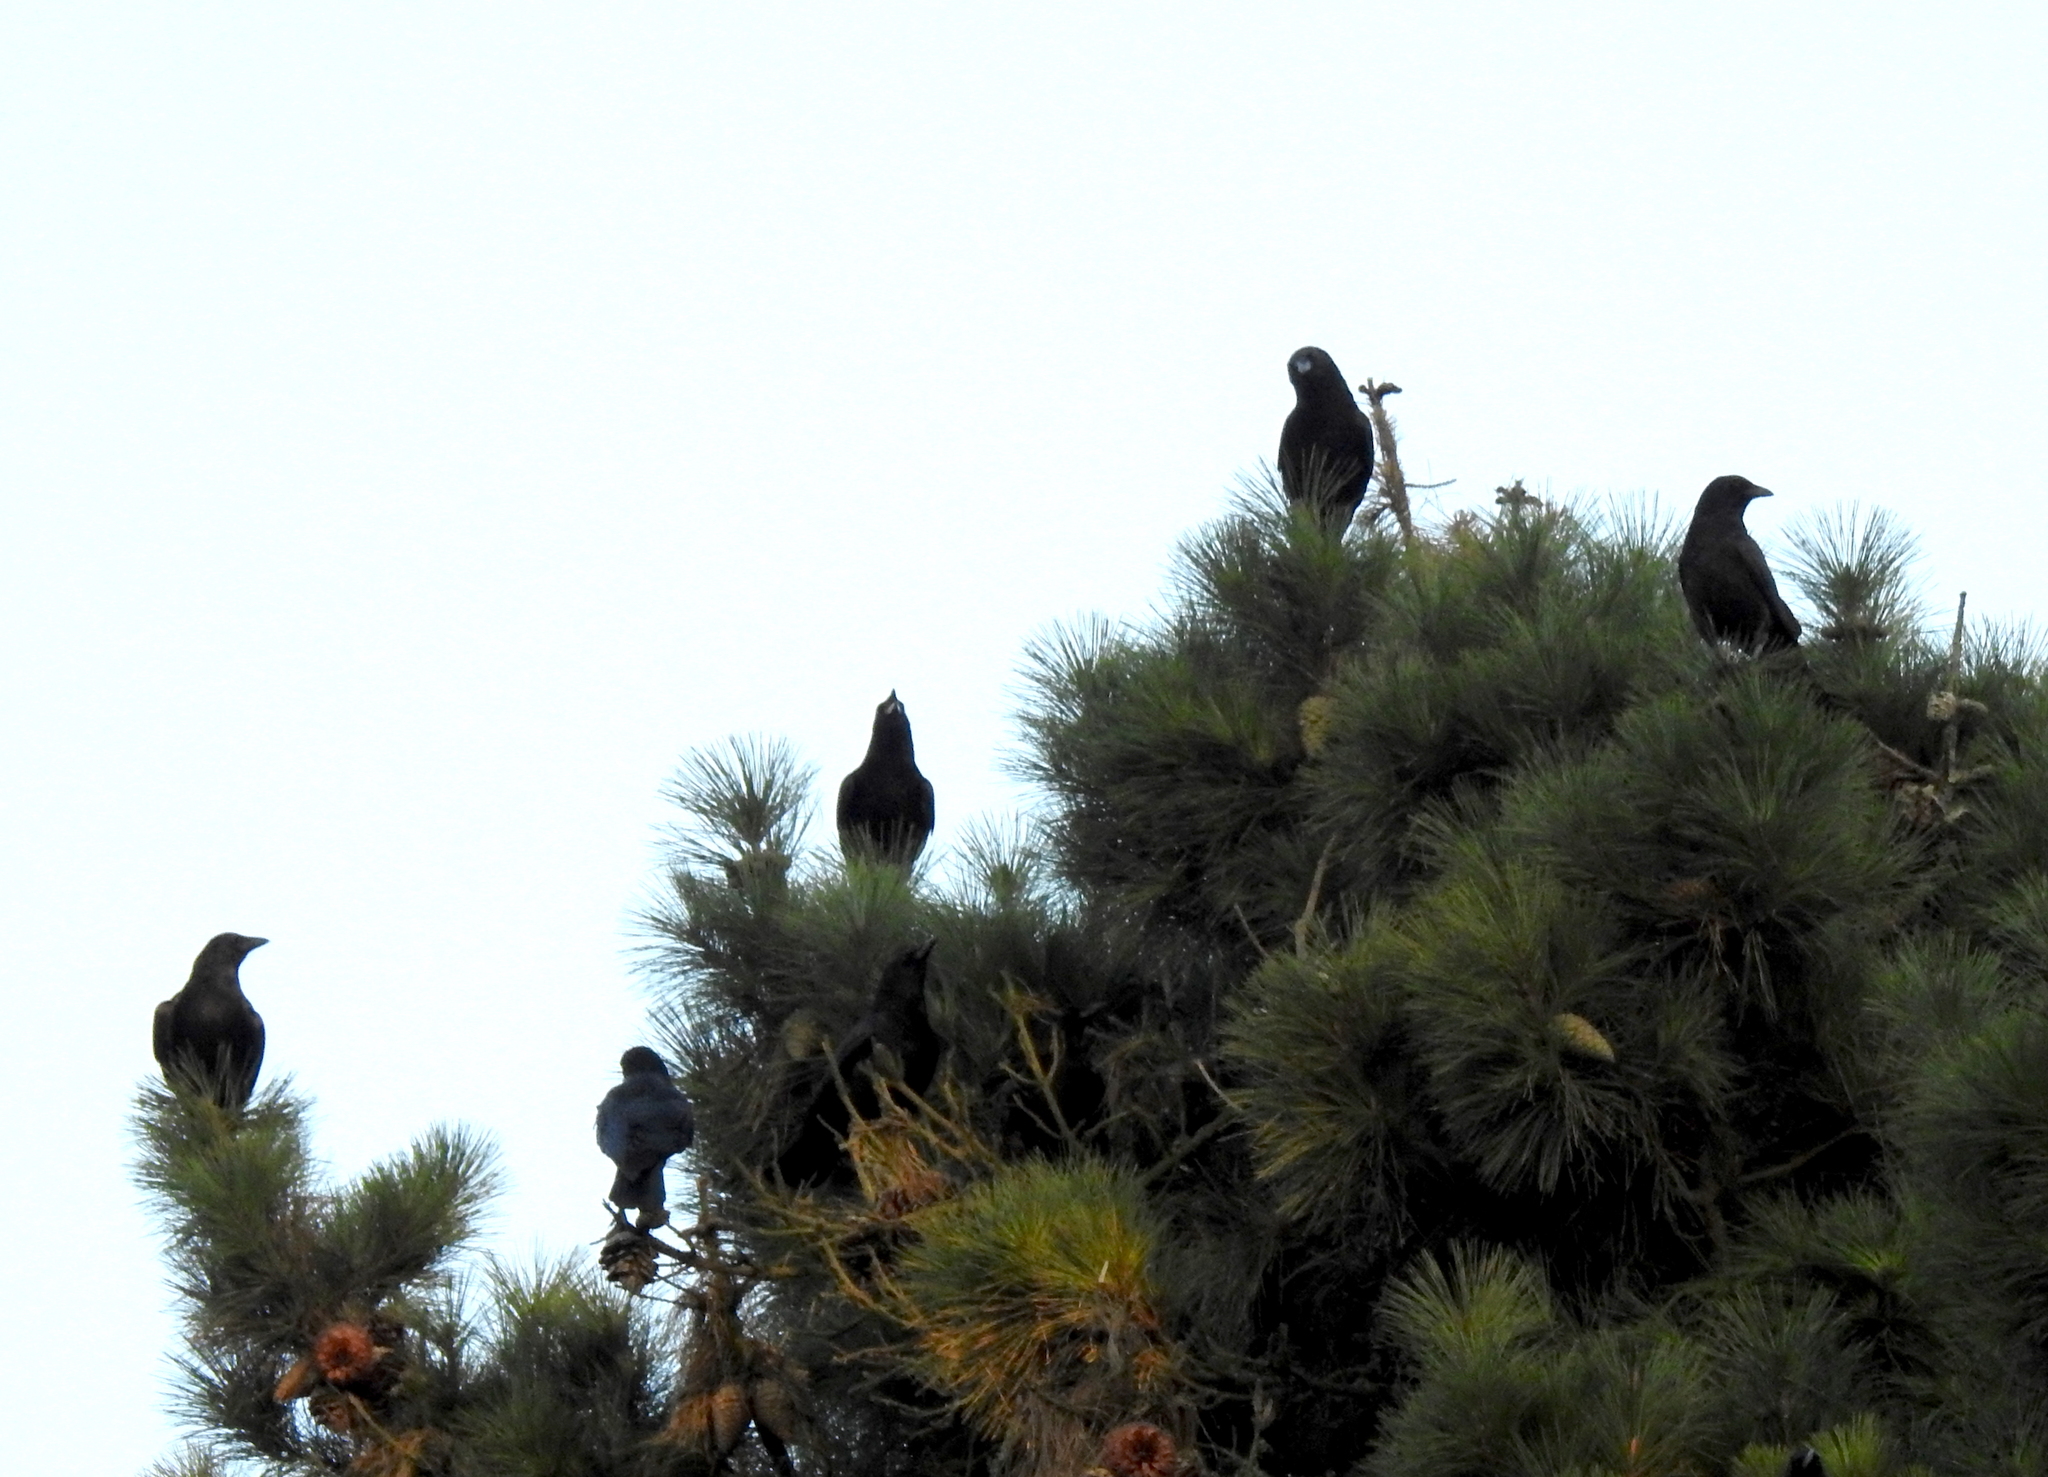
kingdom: Animalia
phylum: Chordata
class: Aves
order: Passeriformes
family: Corvidae
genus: Corvus
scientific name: Corvus brachyrhynchos
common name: American crow
